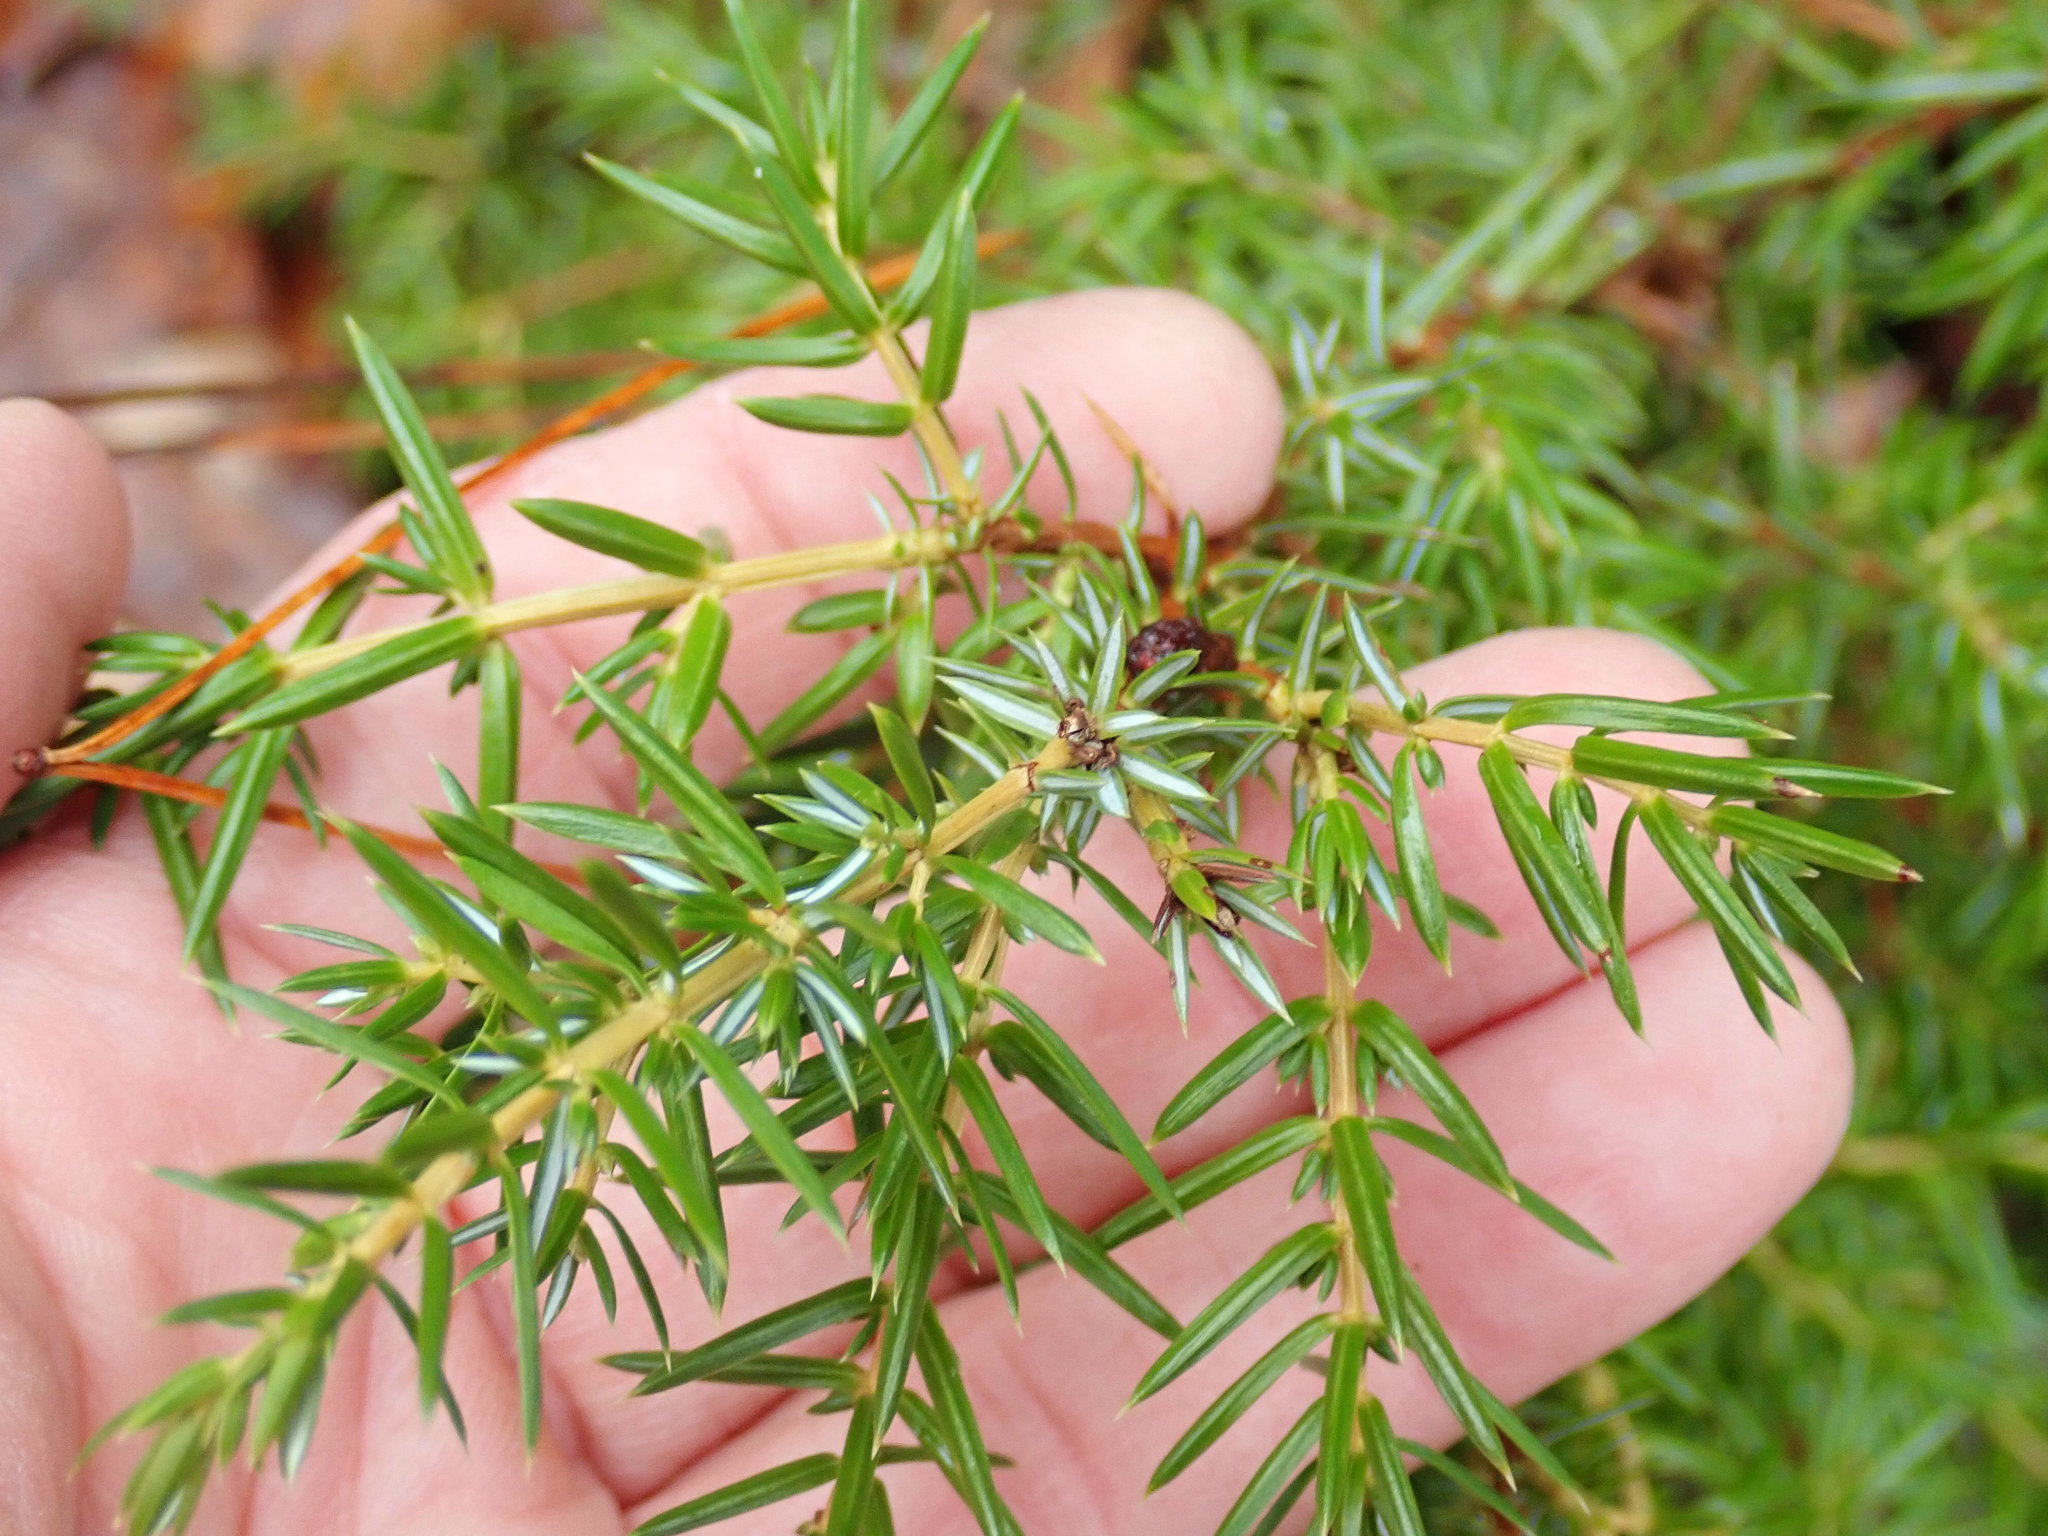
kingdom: Plantae
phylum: Tracheophyta
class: Pinopsida
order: Pinales
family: Cupressaceae
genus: Juniperus
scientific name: Juniperus communis
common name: Common juniper
